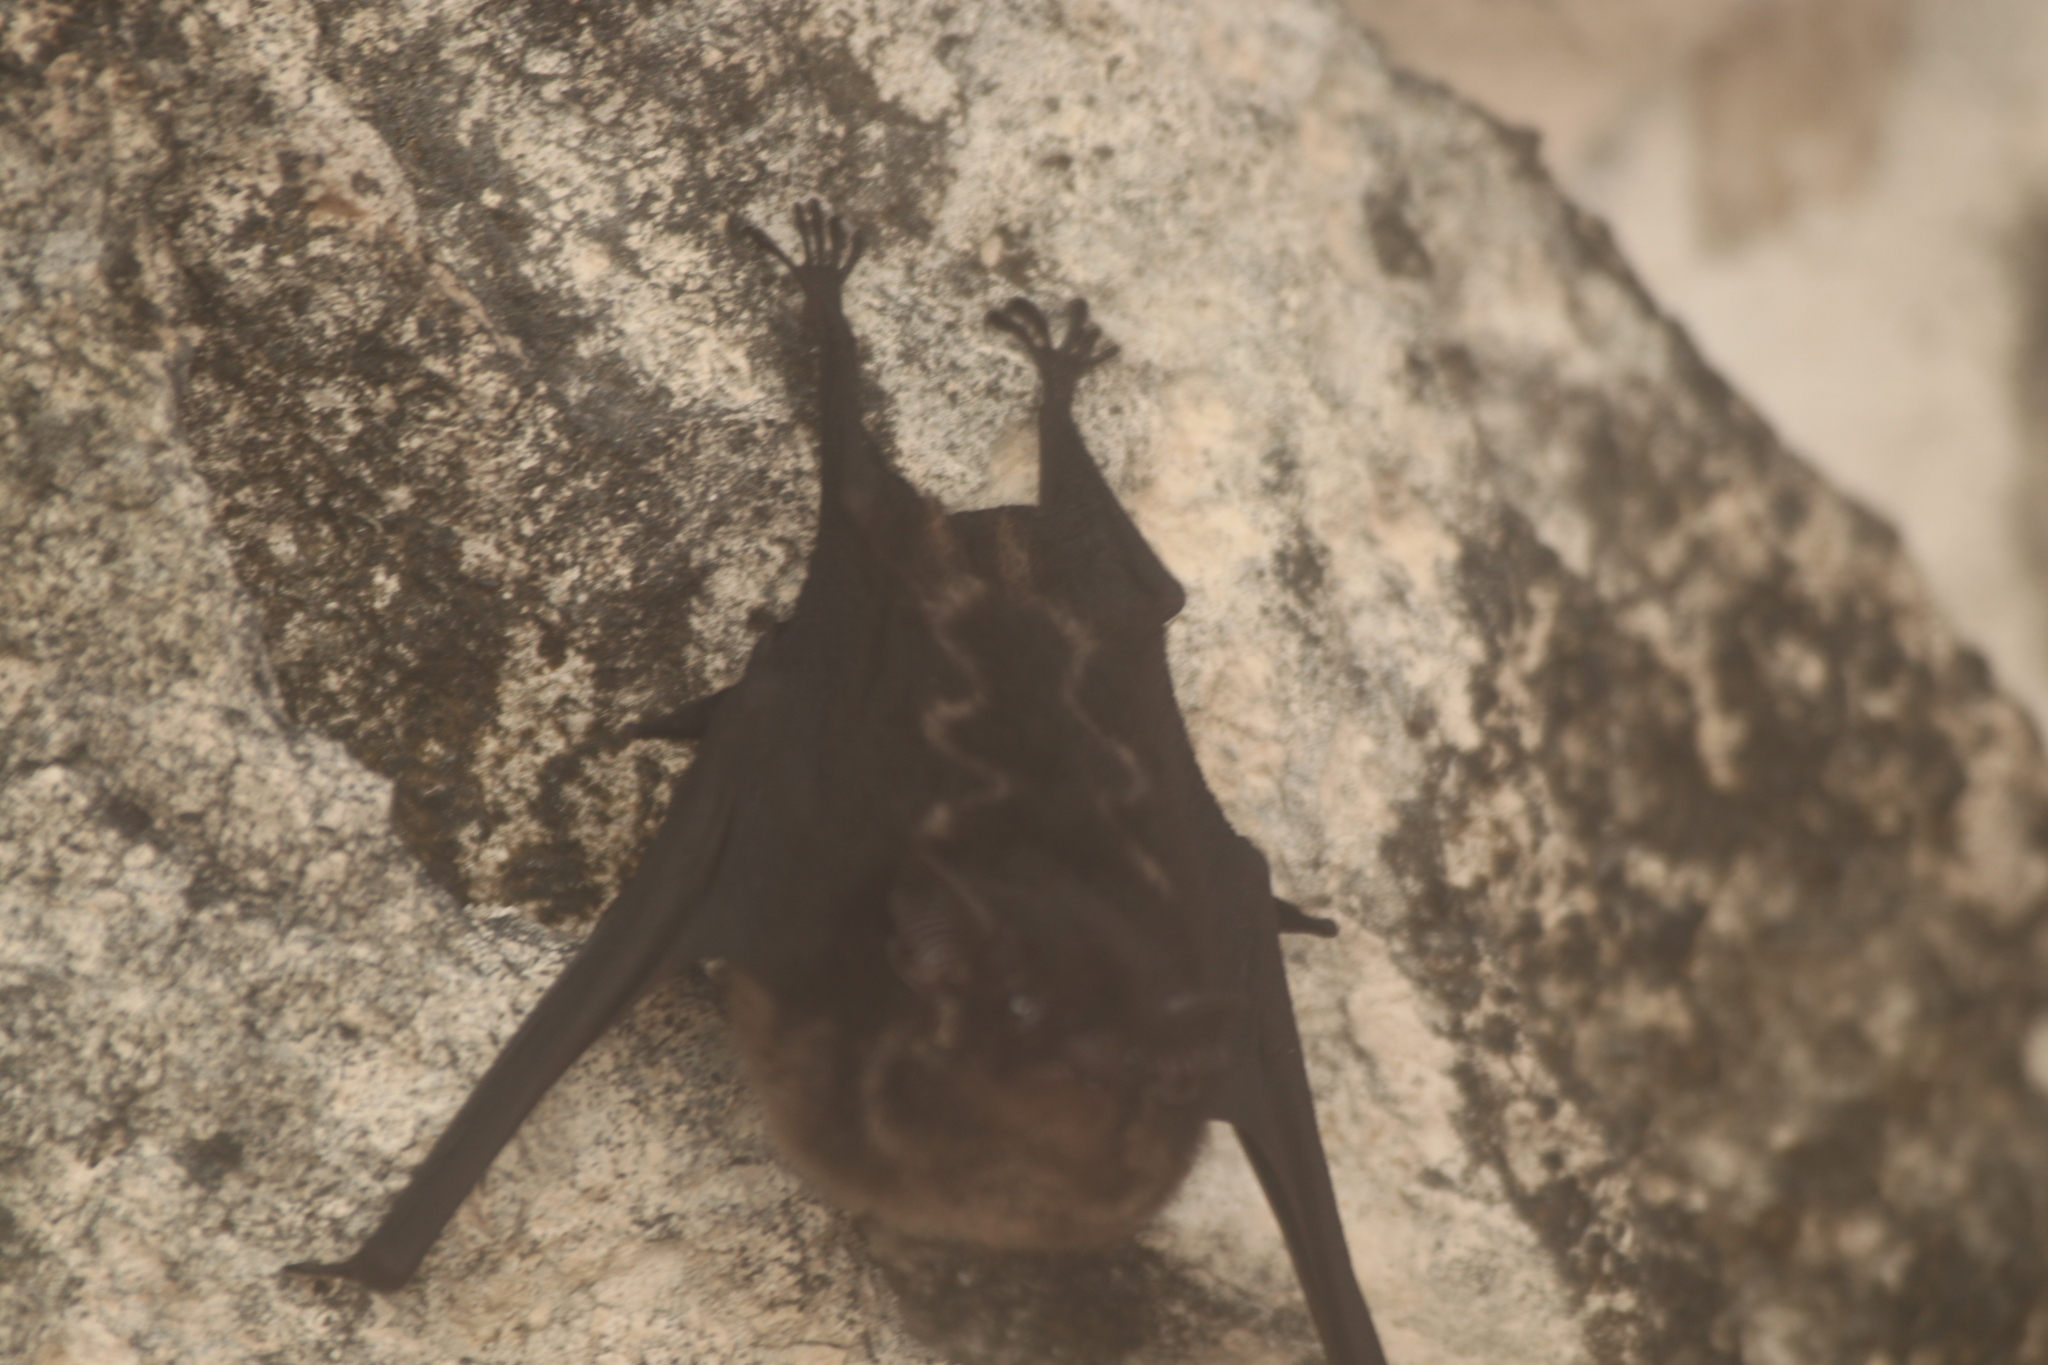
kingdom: Animalia
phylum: Chordata
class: Mammalia
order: Chiroptera
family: Emballonuridae
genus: Saccopteryx
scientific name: Saccopteryx bilineata
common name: Greater sac-winged bat
